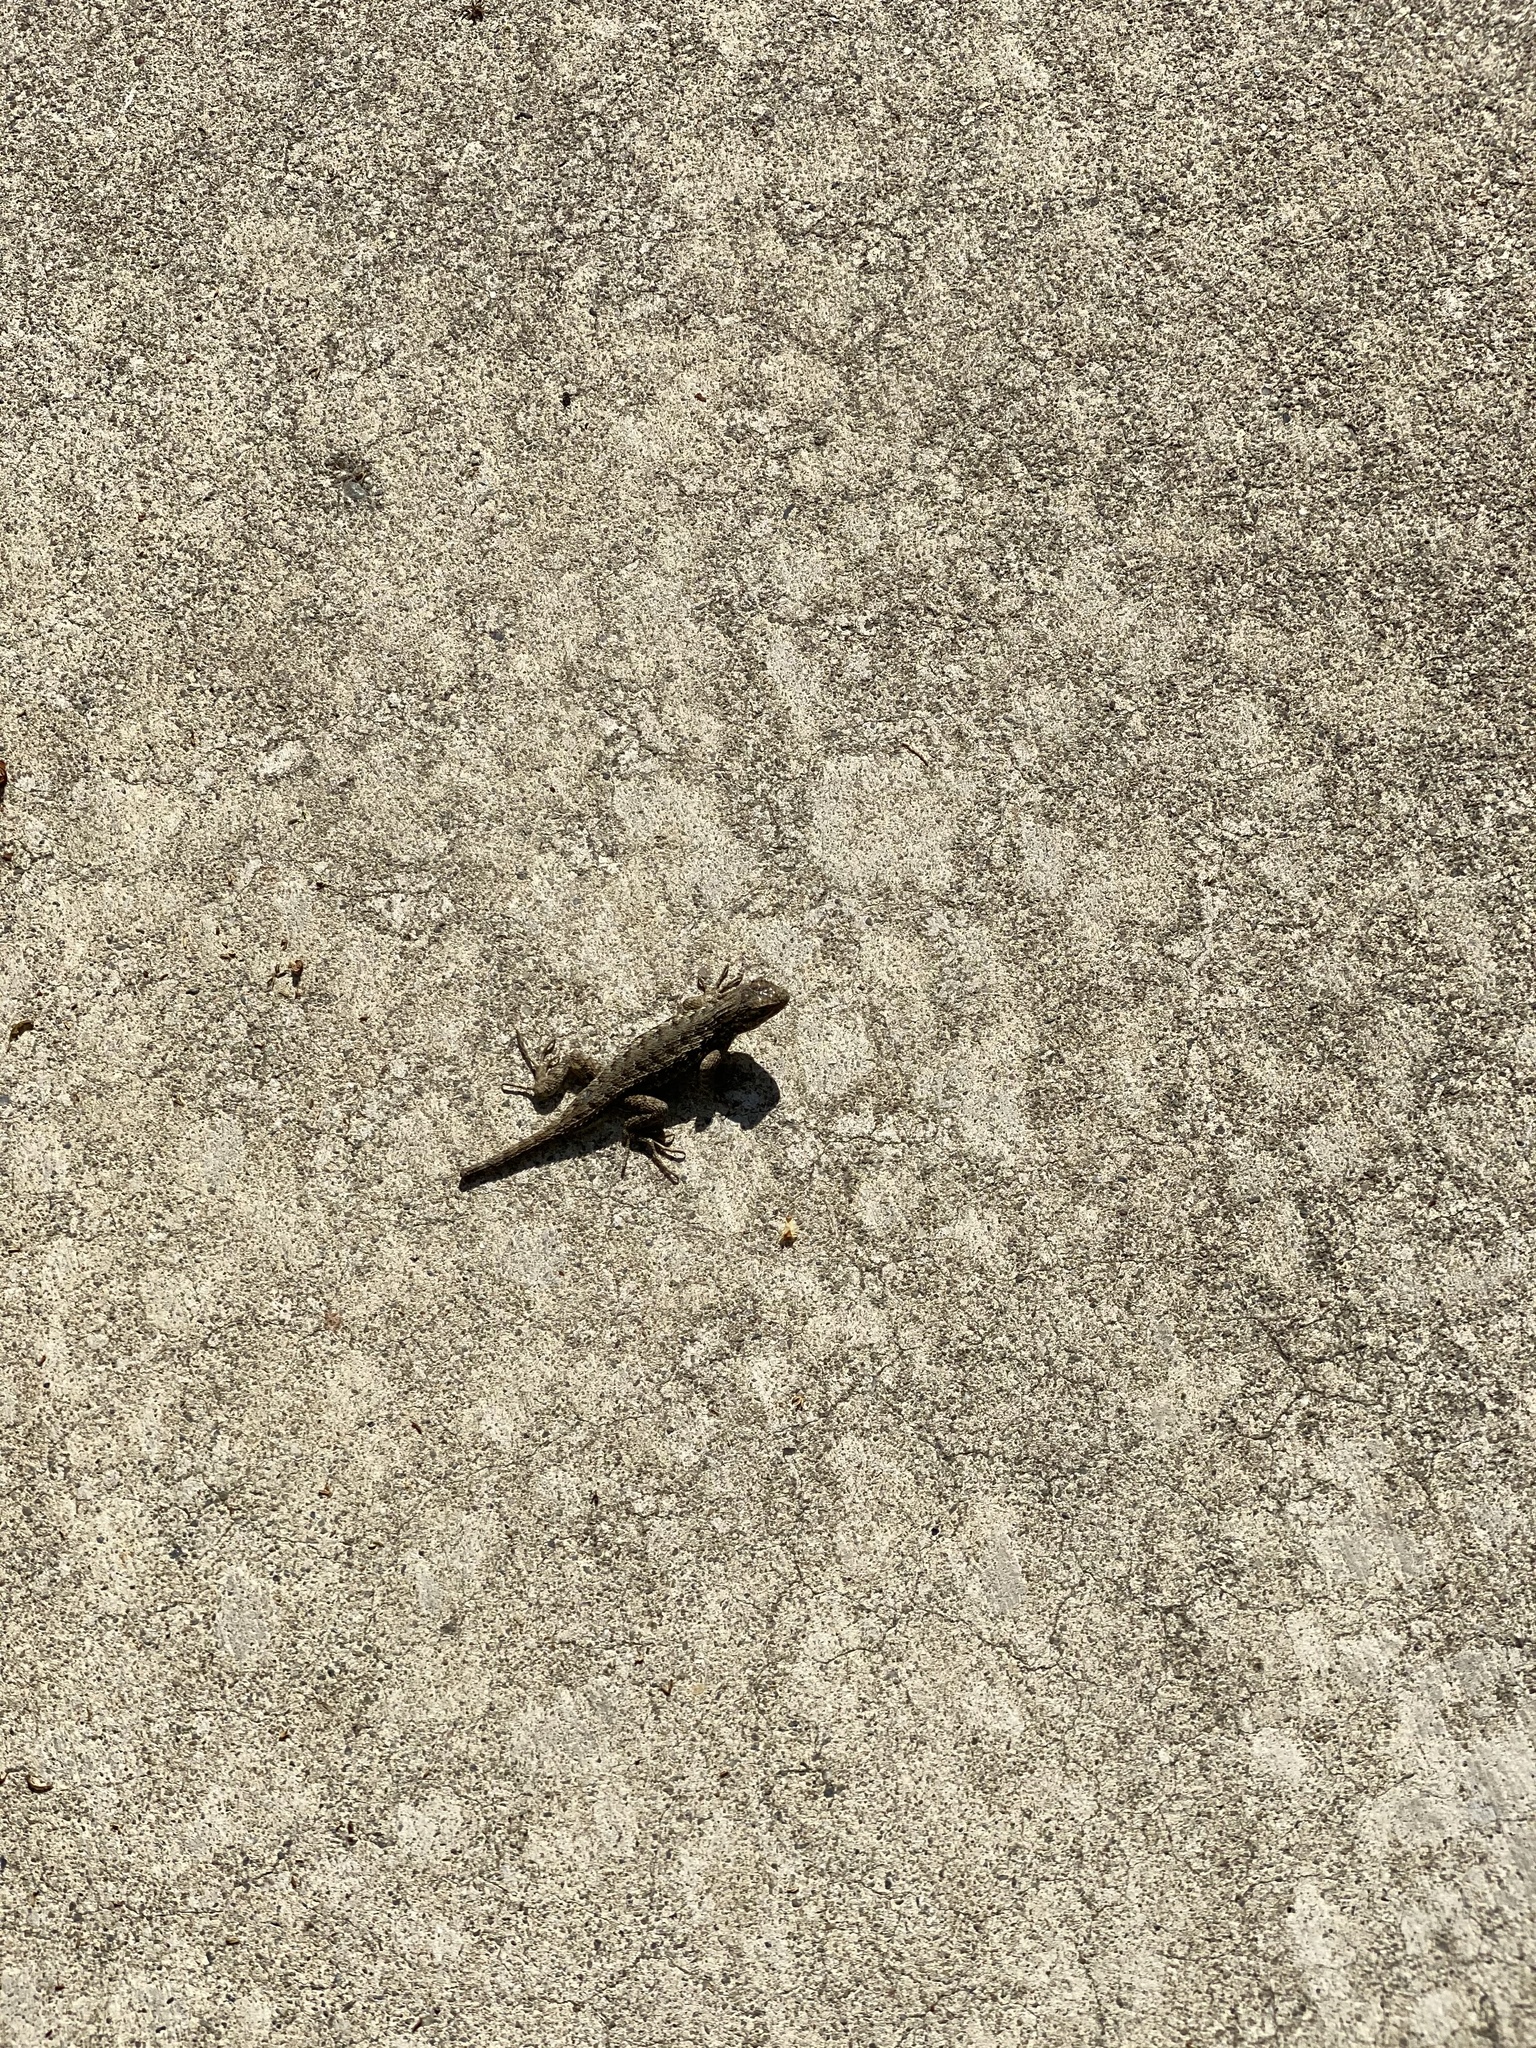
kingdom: Animalia
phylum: Chordata
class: Squamata
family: Phrynosomatidae
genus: Sceloporus
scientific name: Sceloporus occidentalis
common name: Western fence lizard
